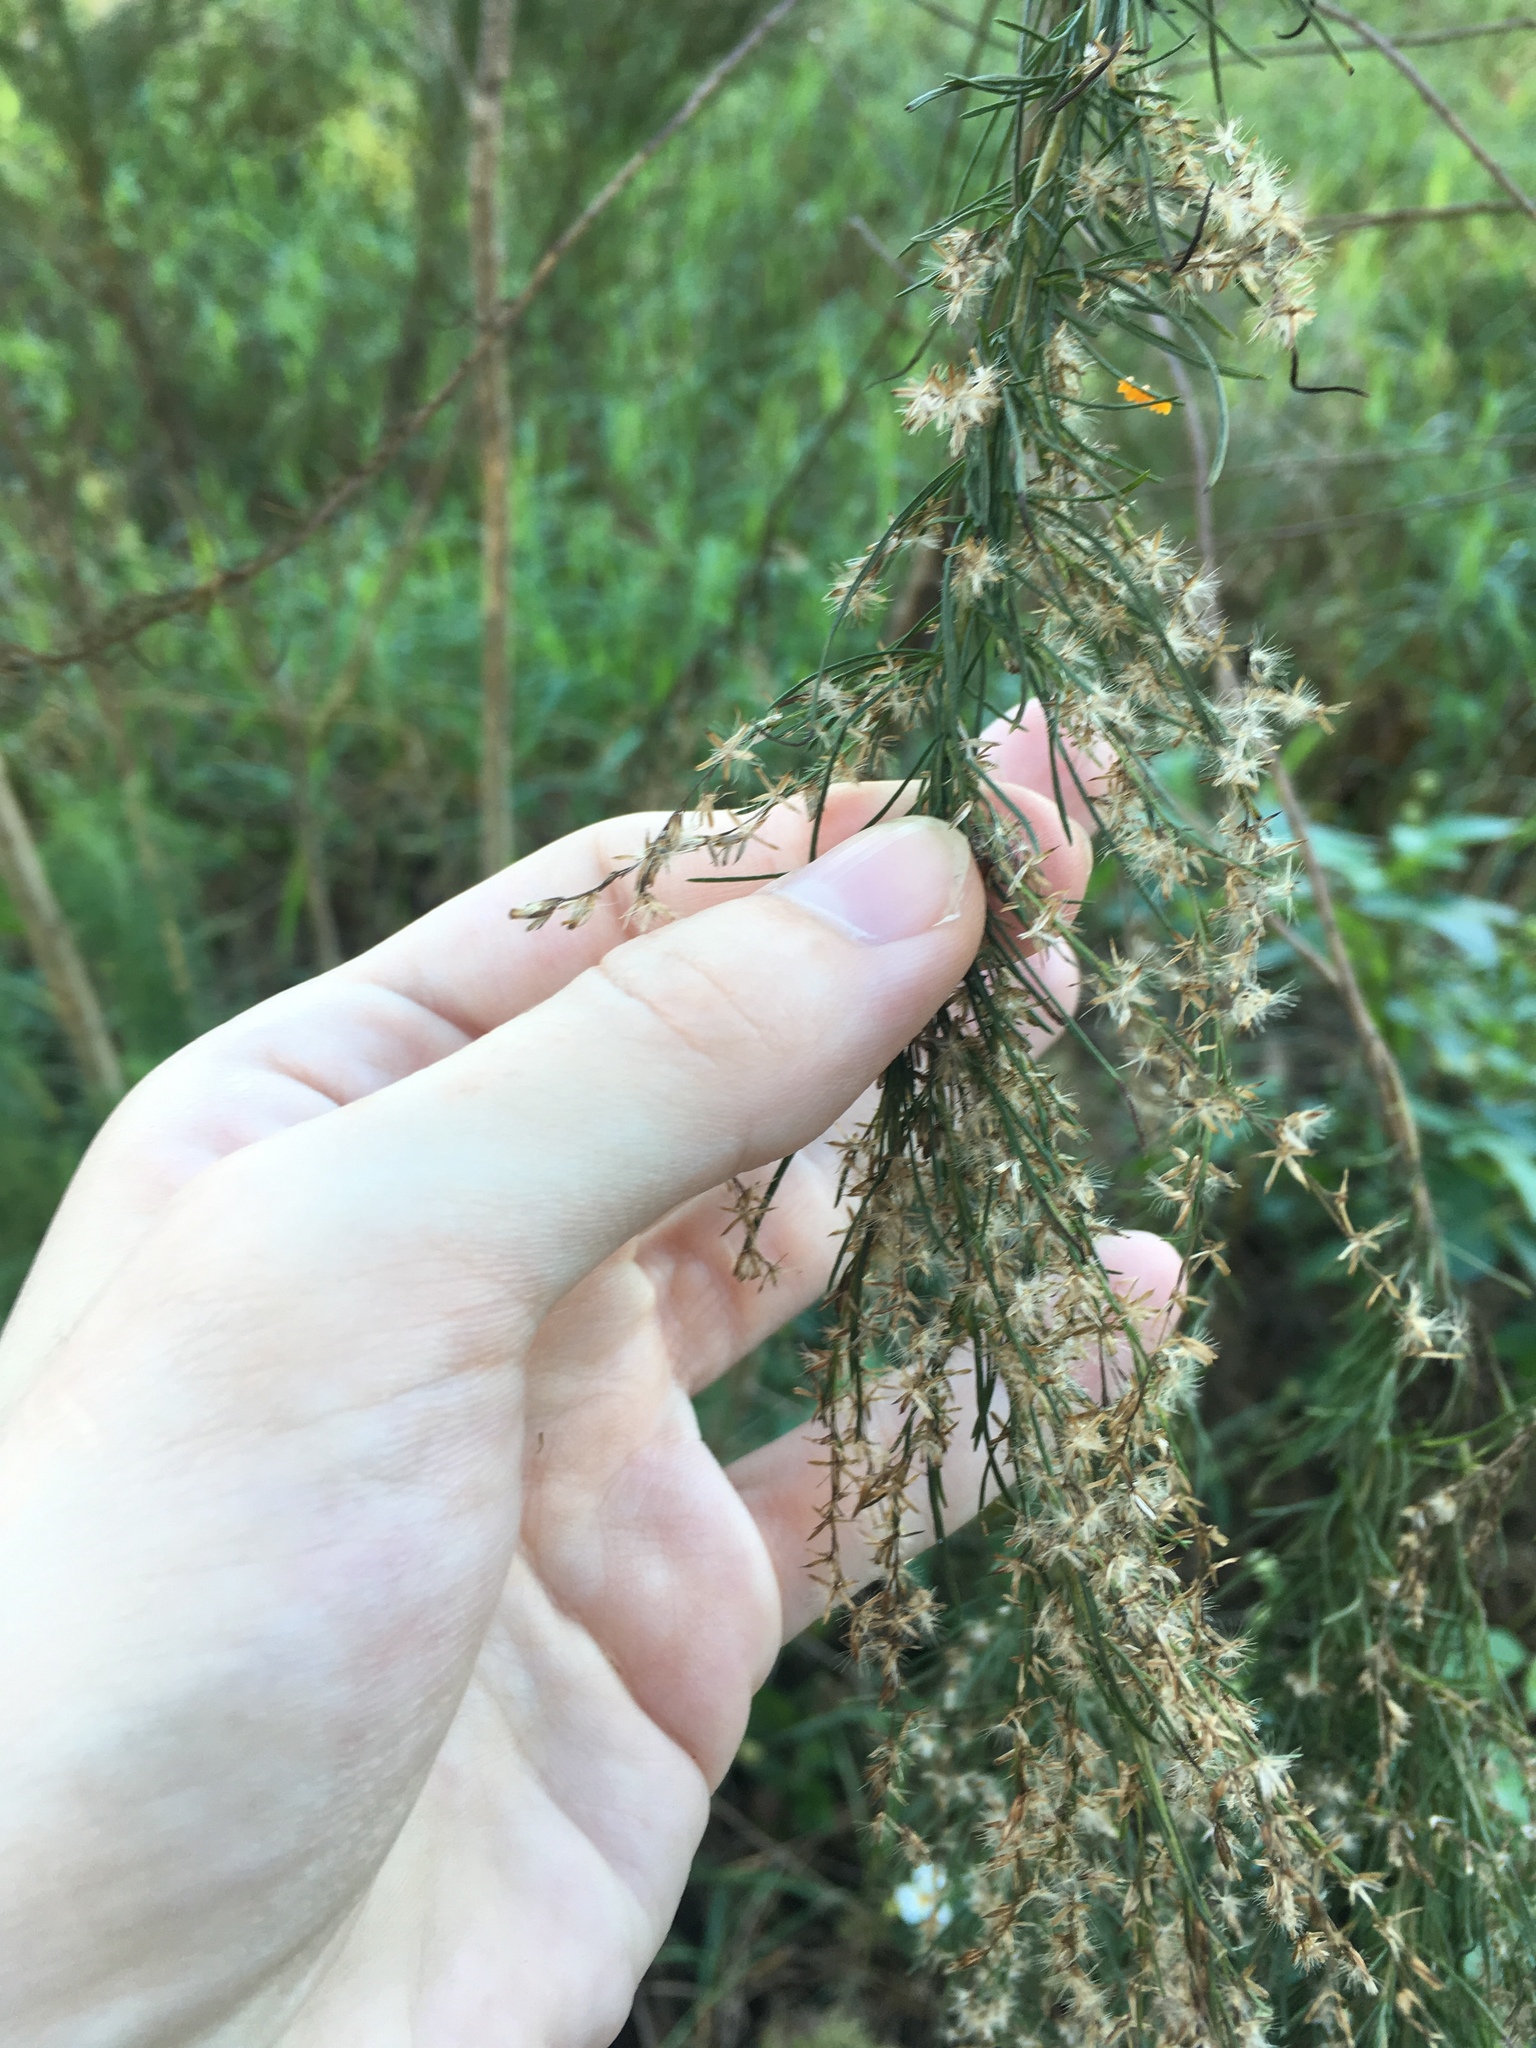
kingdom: Plantae
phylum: Tracheophyta
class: Magnoliopsida
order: Asterales
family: Asteraceae
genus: Eupatorium
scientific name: Eupatorium capillifolium
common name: Dog-fennel
